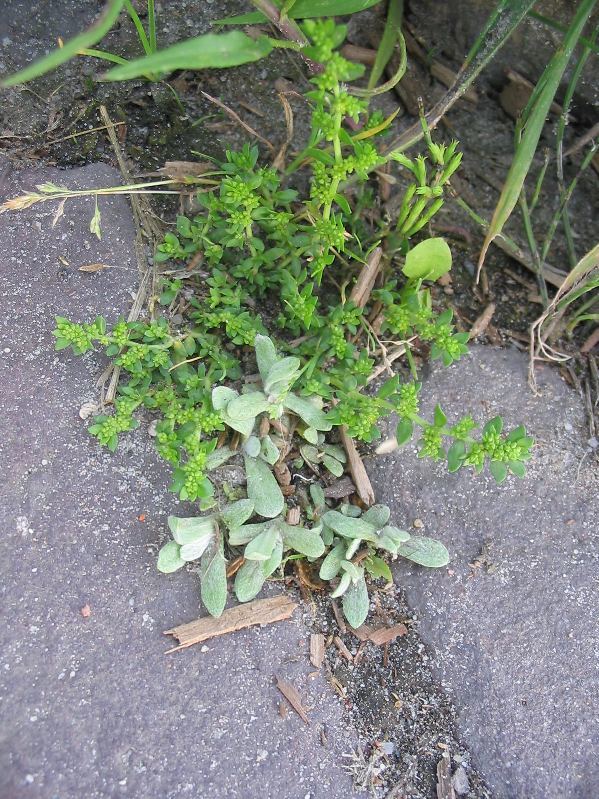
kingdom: Plantae
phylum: Tracheophyta
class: Magnoliopsida
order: Caryophyllales
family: Caryophyllaceae
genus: Herniaria
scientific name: Herniaria glabra
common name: Smooth rupturewort
